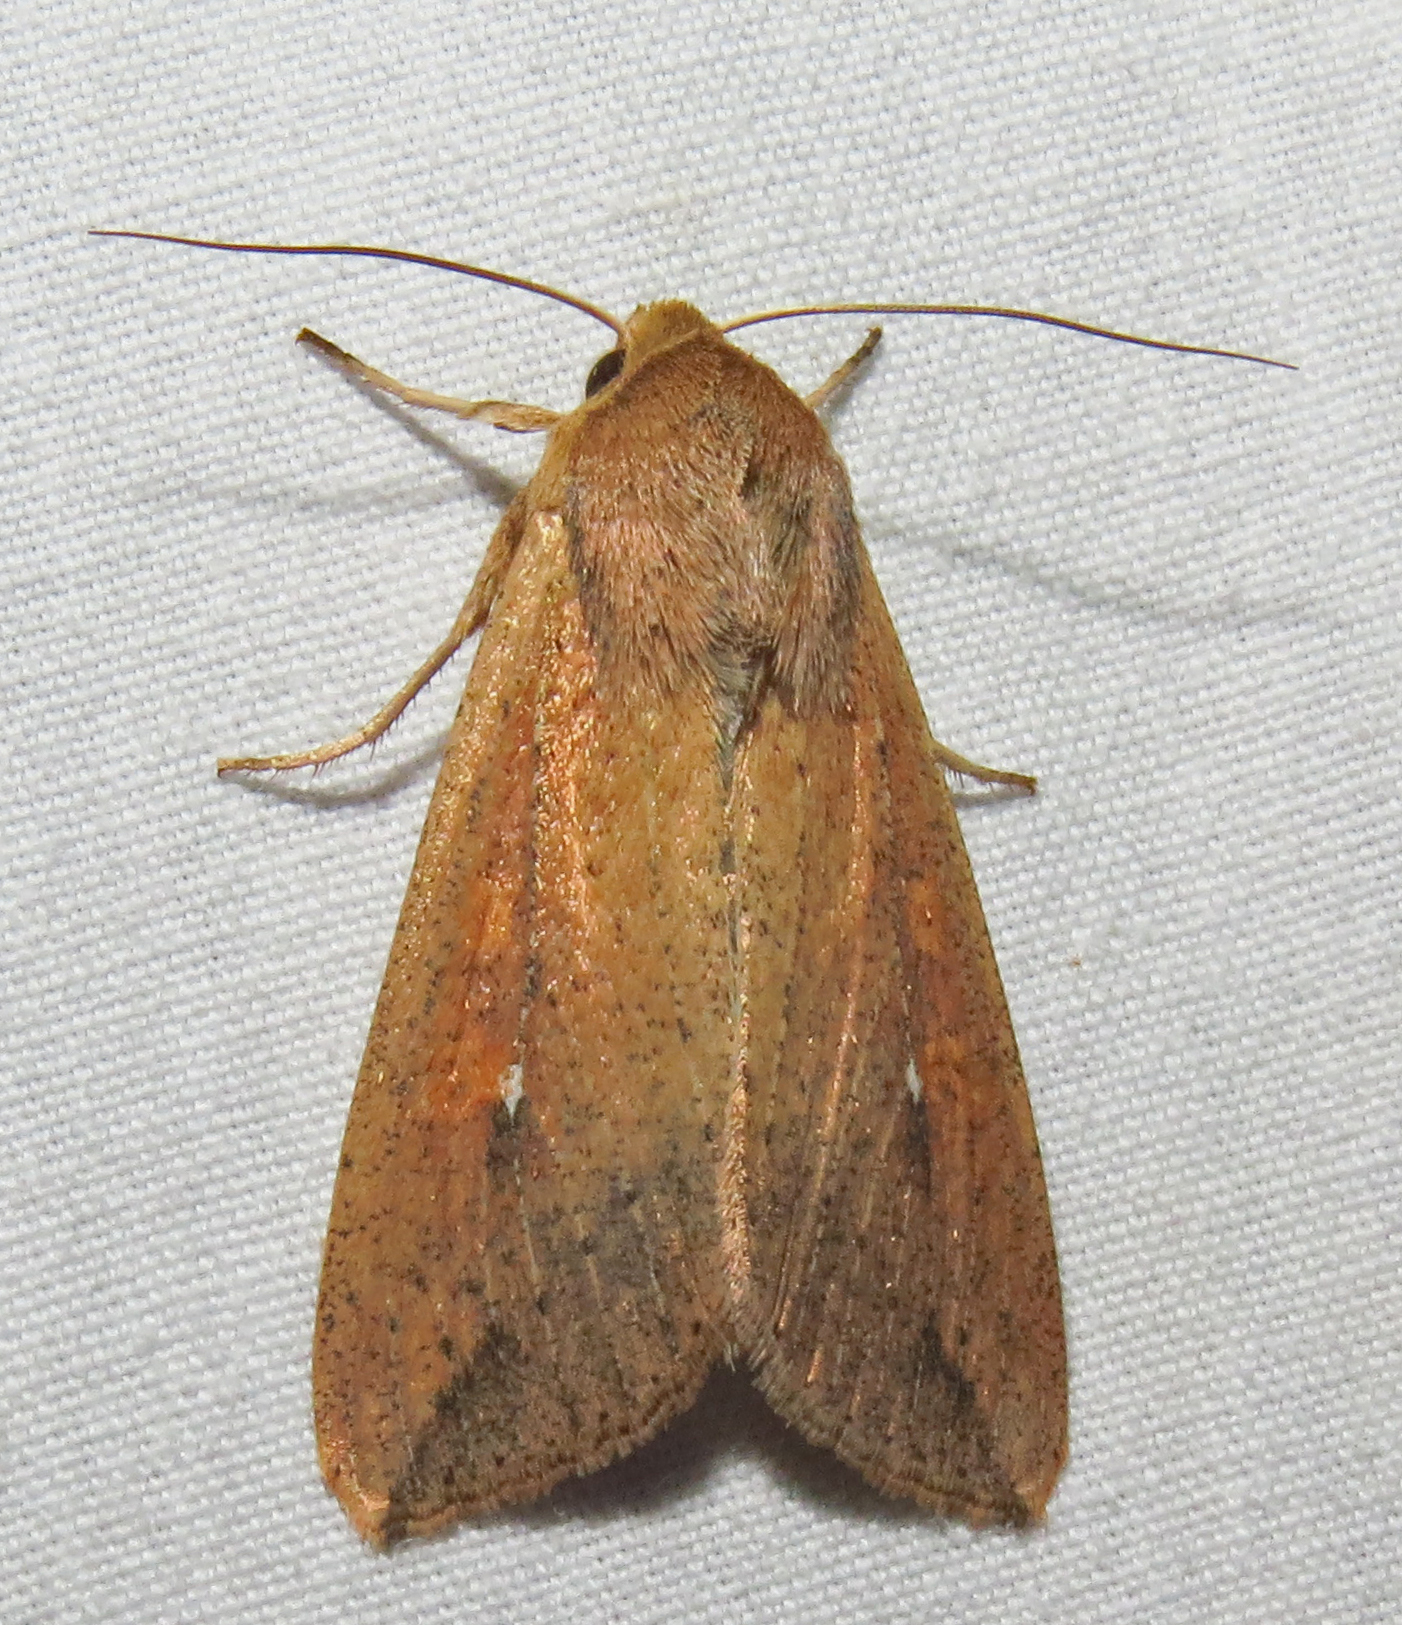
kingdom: Animalia
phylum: Arthropoda
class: Insecta
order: Lepidoptera
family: Noctuidae
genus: Mythimna
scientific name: Mythimna unipuncta
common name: White-speck
